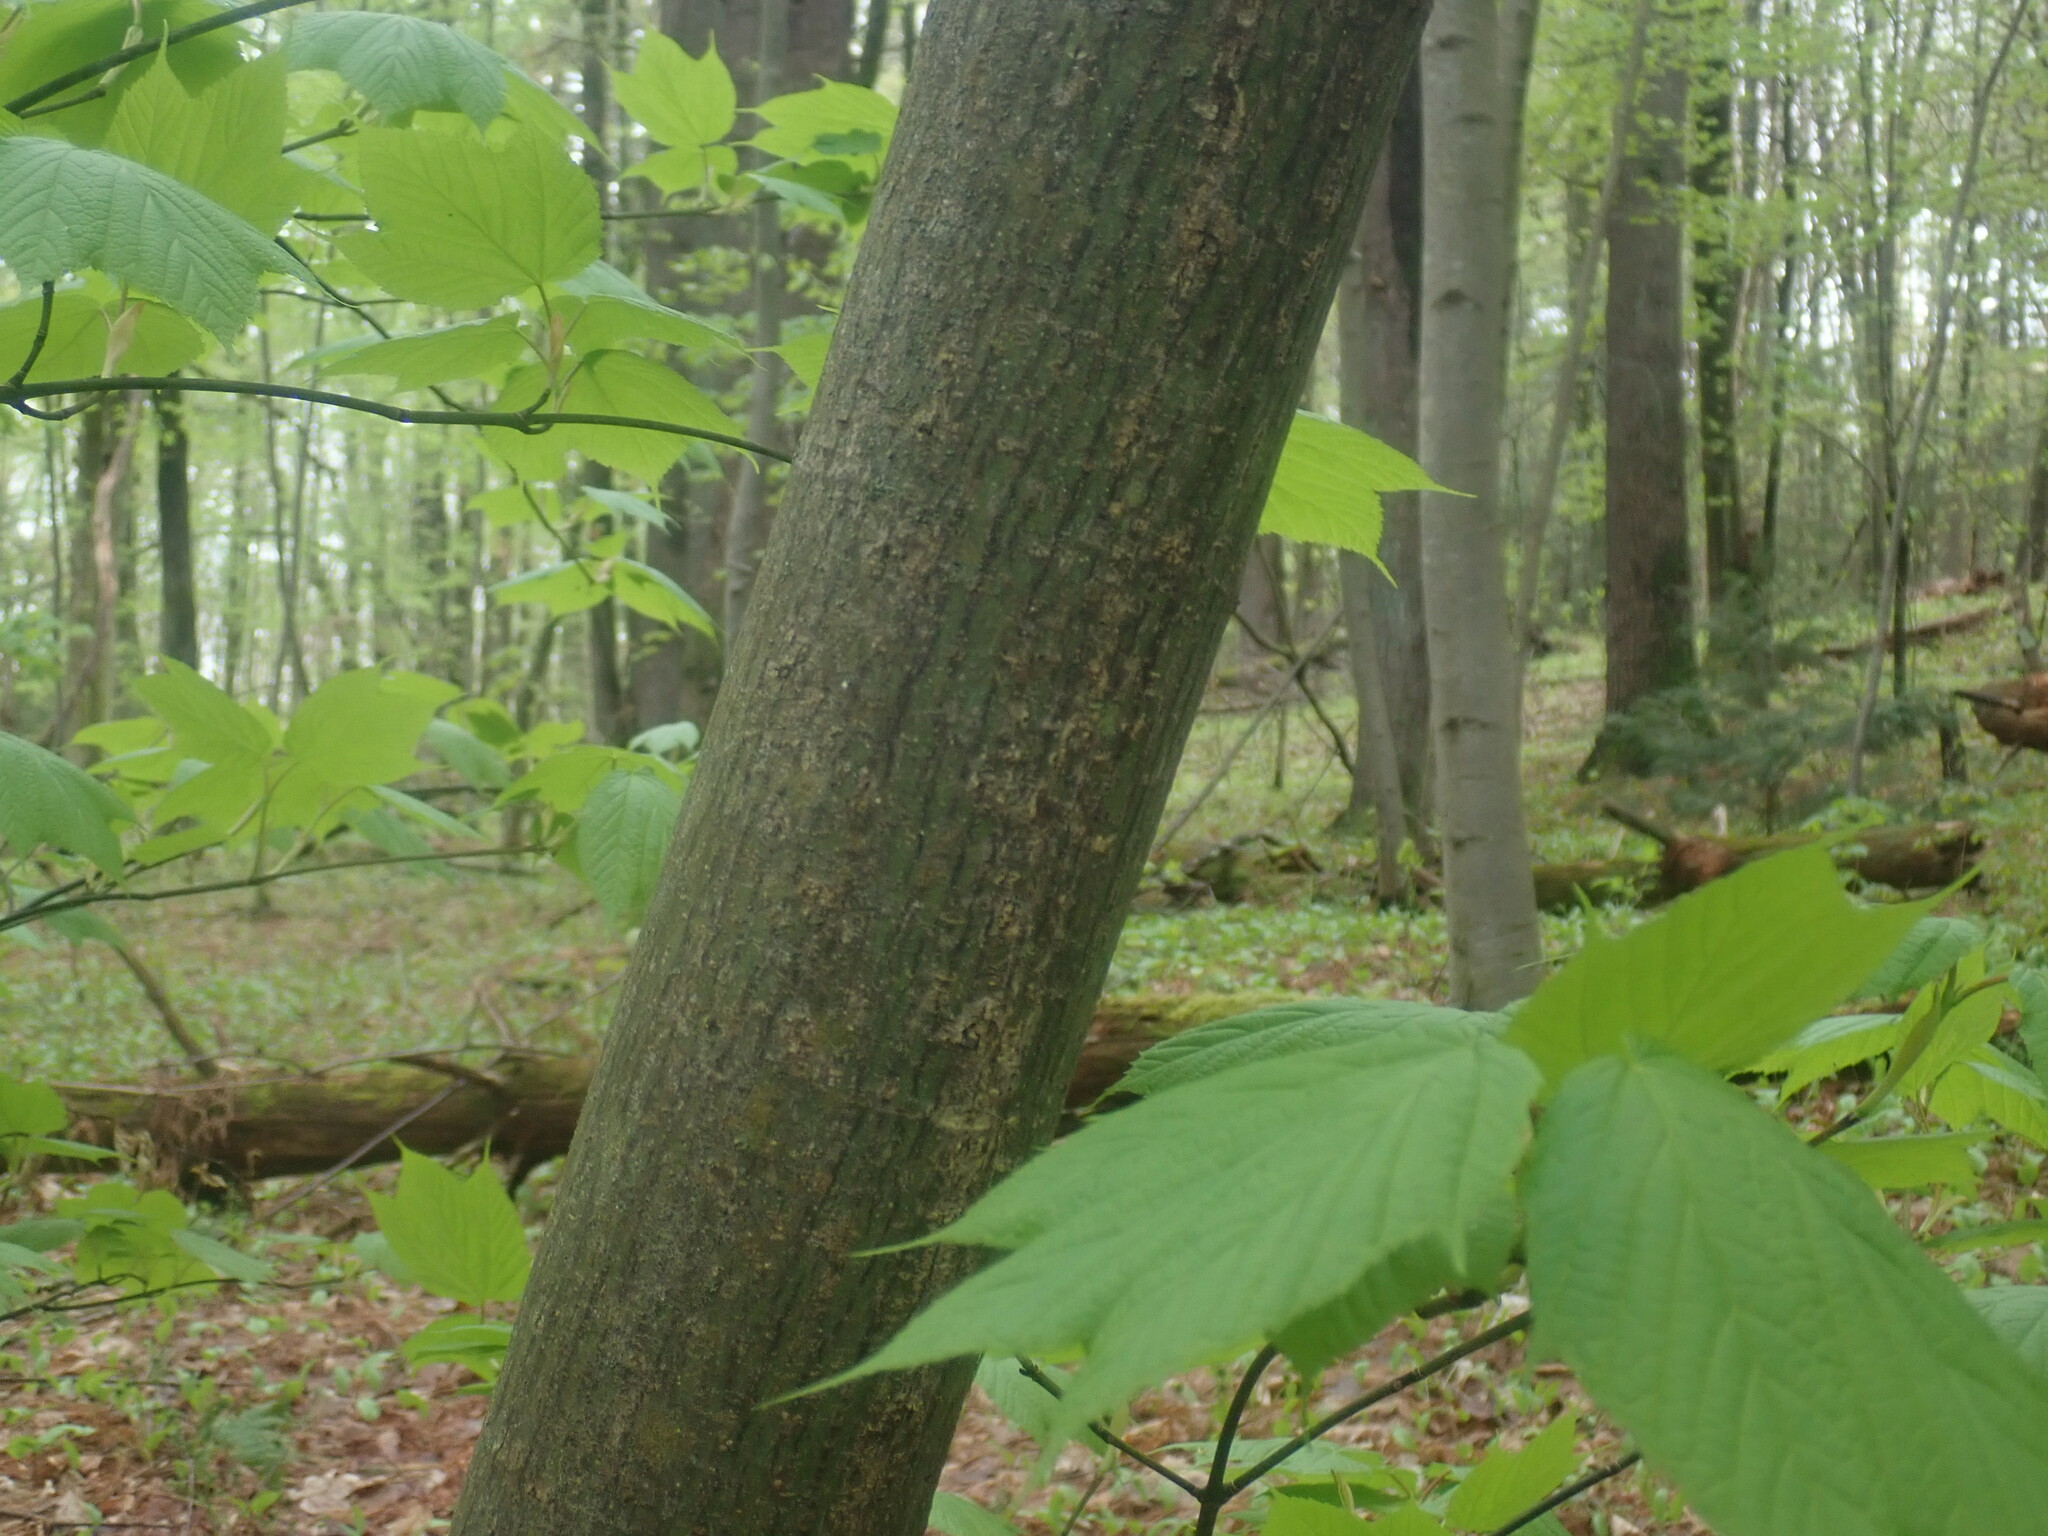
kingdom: Plantae
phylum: Tracheophyta
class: Magnoliopsida
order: Sapindales
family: Sapindaceae
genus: Acer
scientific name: Acer pensylvanicum
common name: Moosewood
